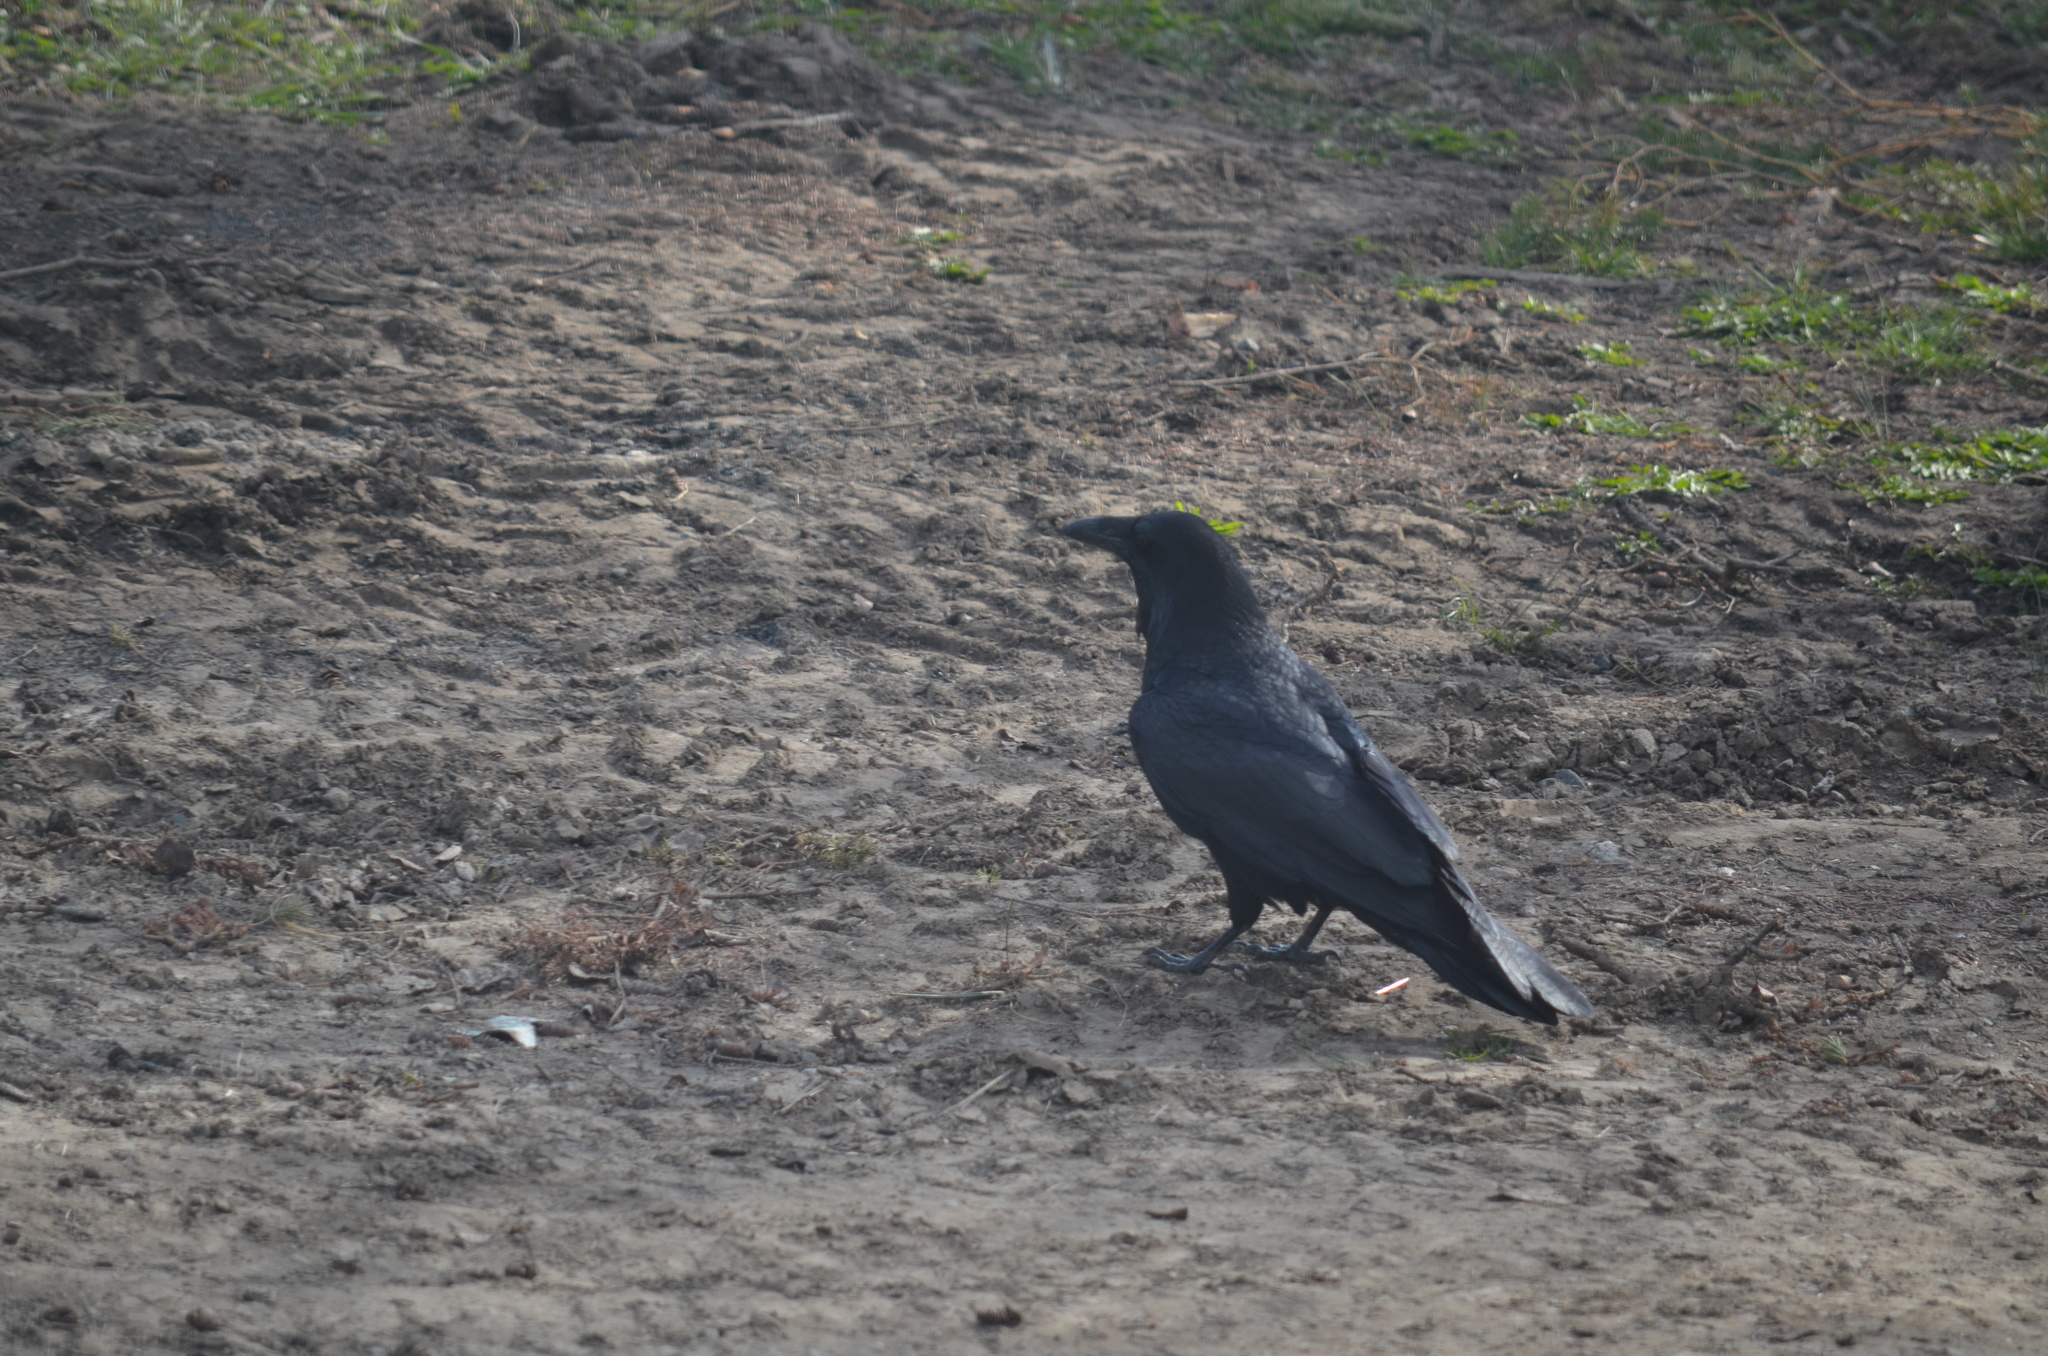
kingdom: Animalia
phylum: Chordata
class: Aves
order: Passeriformes
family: Corvidae
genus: Corvus
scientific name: Corvus corax
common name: Common raven
